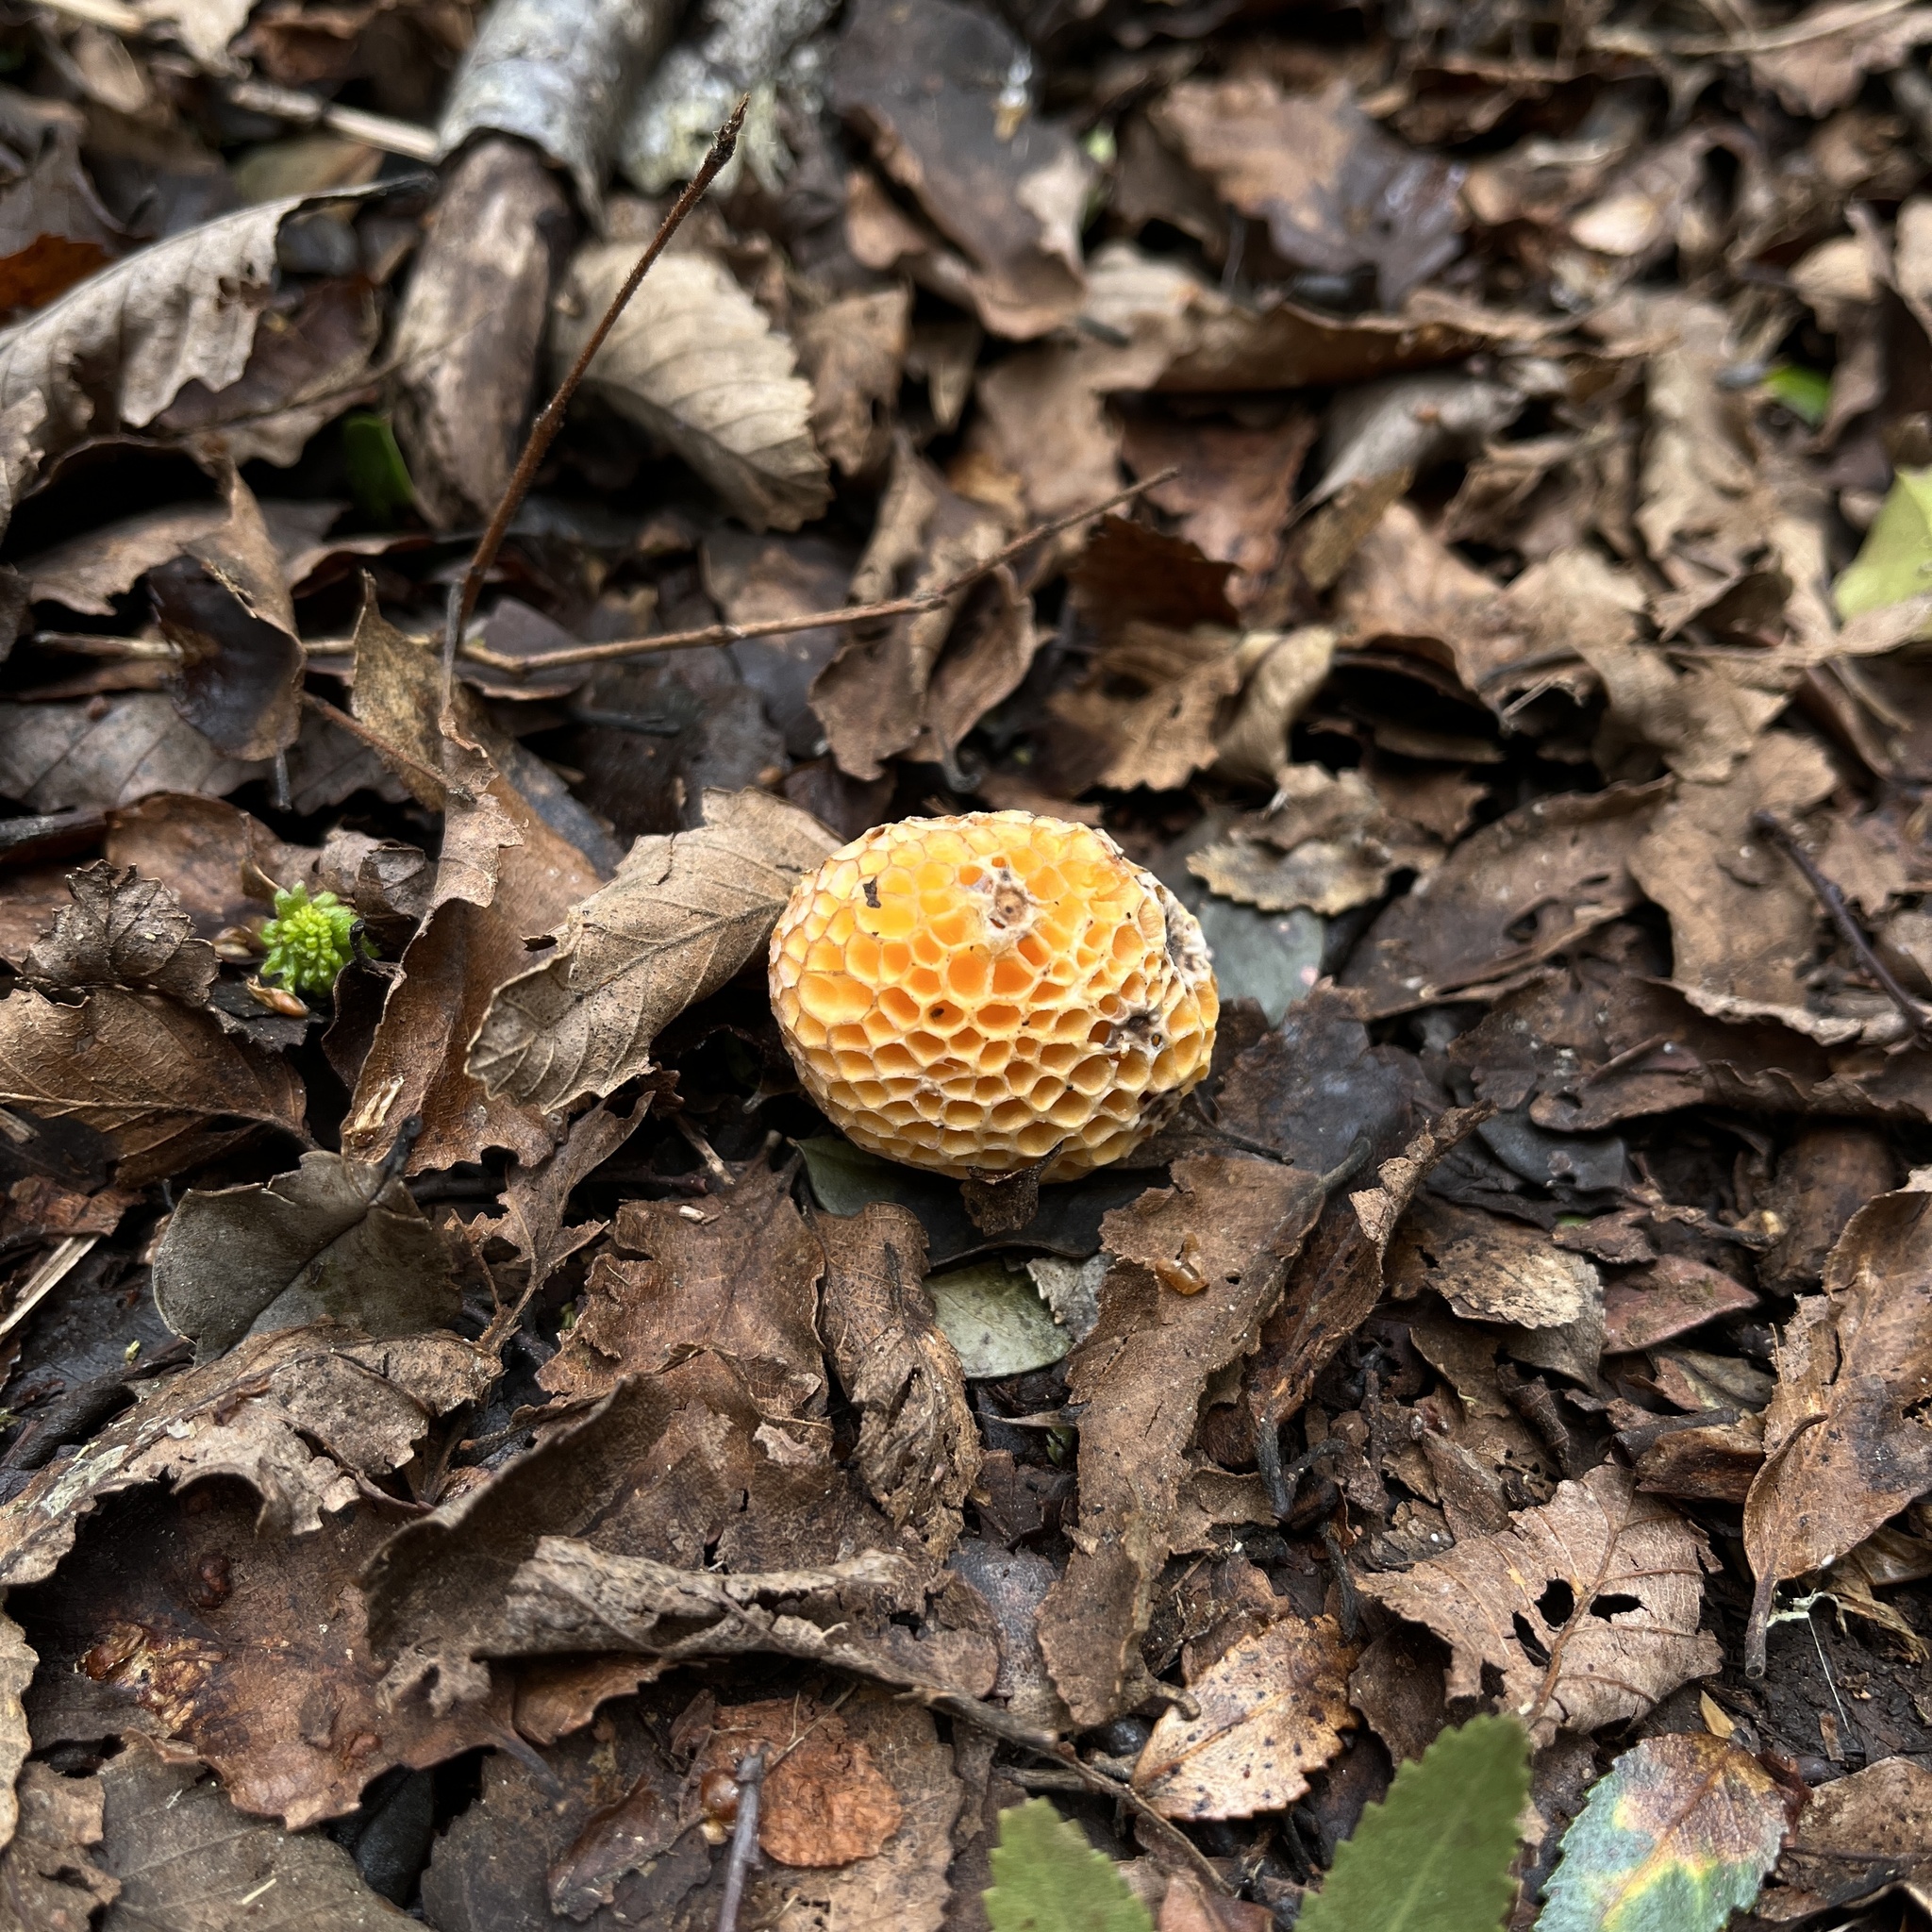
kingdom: Fungi
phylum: Ascomycota
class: Leotiomycetes
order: Cyttariales
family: Cyttariaceae
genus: Cyttaria
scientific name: Cyttaria espinosae
